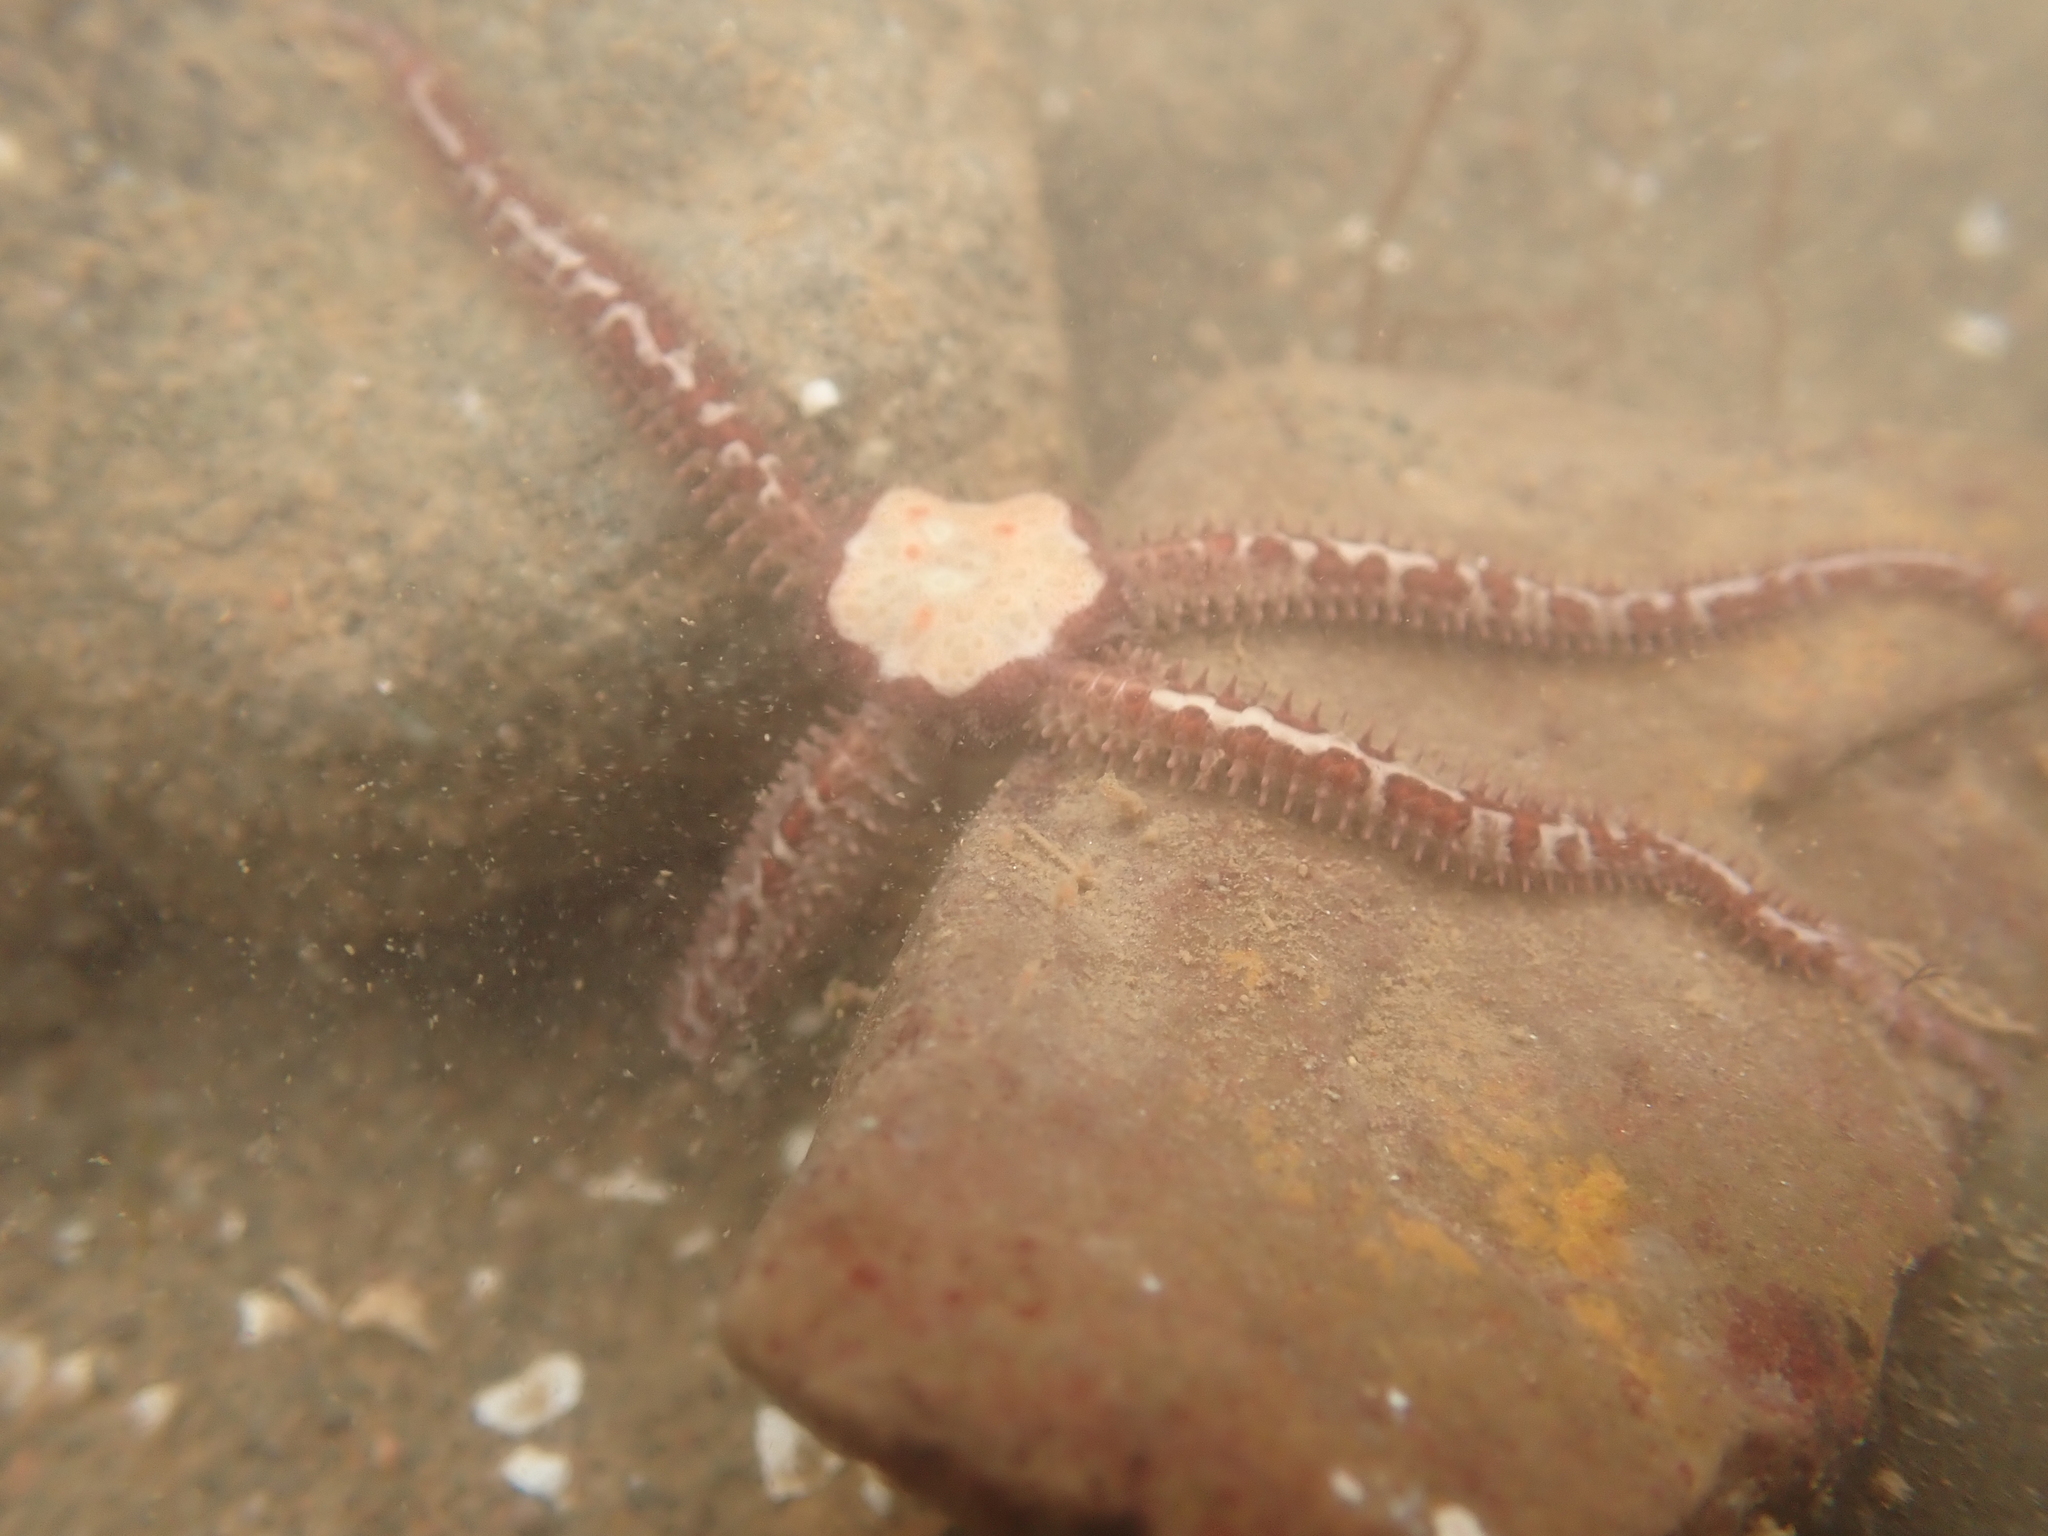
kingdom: Animalia
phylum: Echinodermata
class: Ophiuroidea
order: Amphilepidida
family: Ophiopholidae
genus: Ophiopholis
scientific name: Ophiopholis aculeata
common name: Crevice brittlestar
